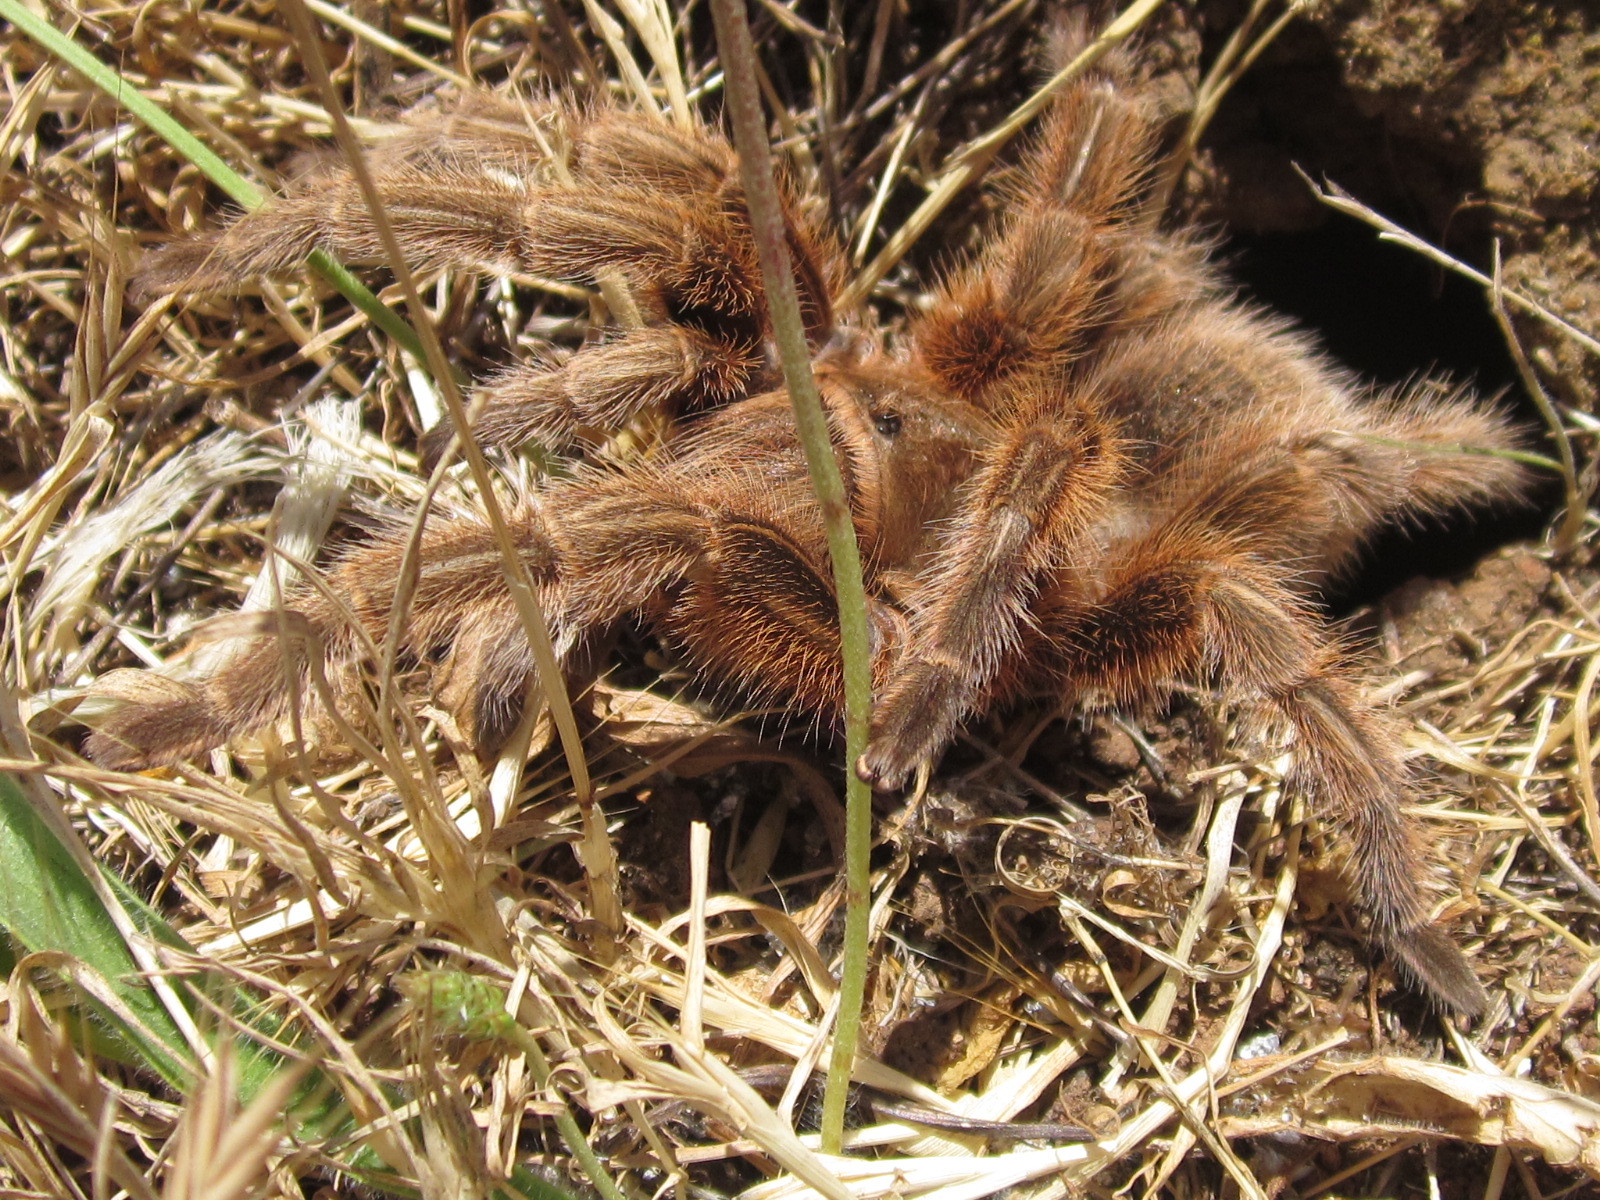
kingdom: Animalia
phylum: Arthropoda
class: Arachnida
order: Araneae
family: Theraphosidae
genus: Grammostola
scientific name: Grammostola rosea
